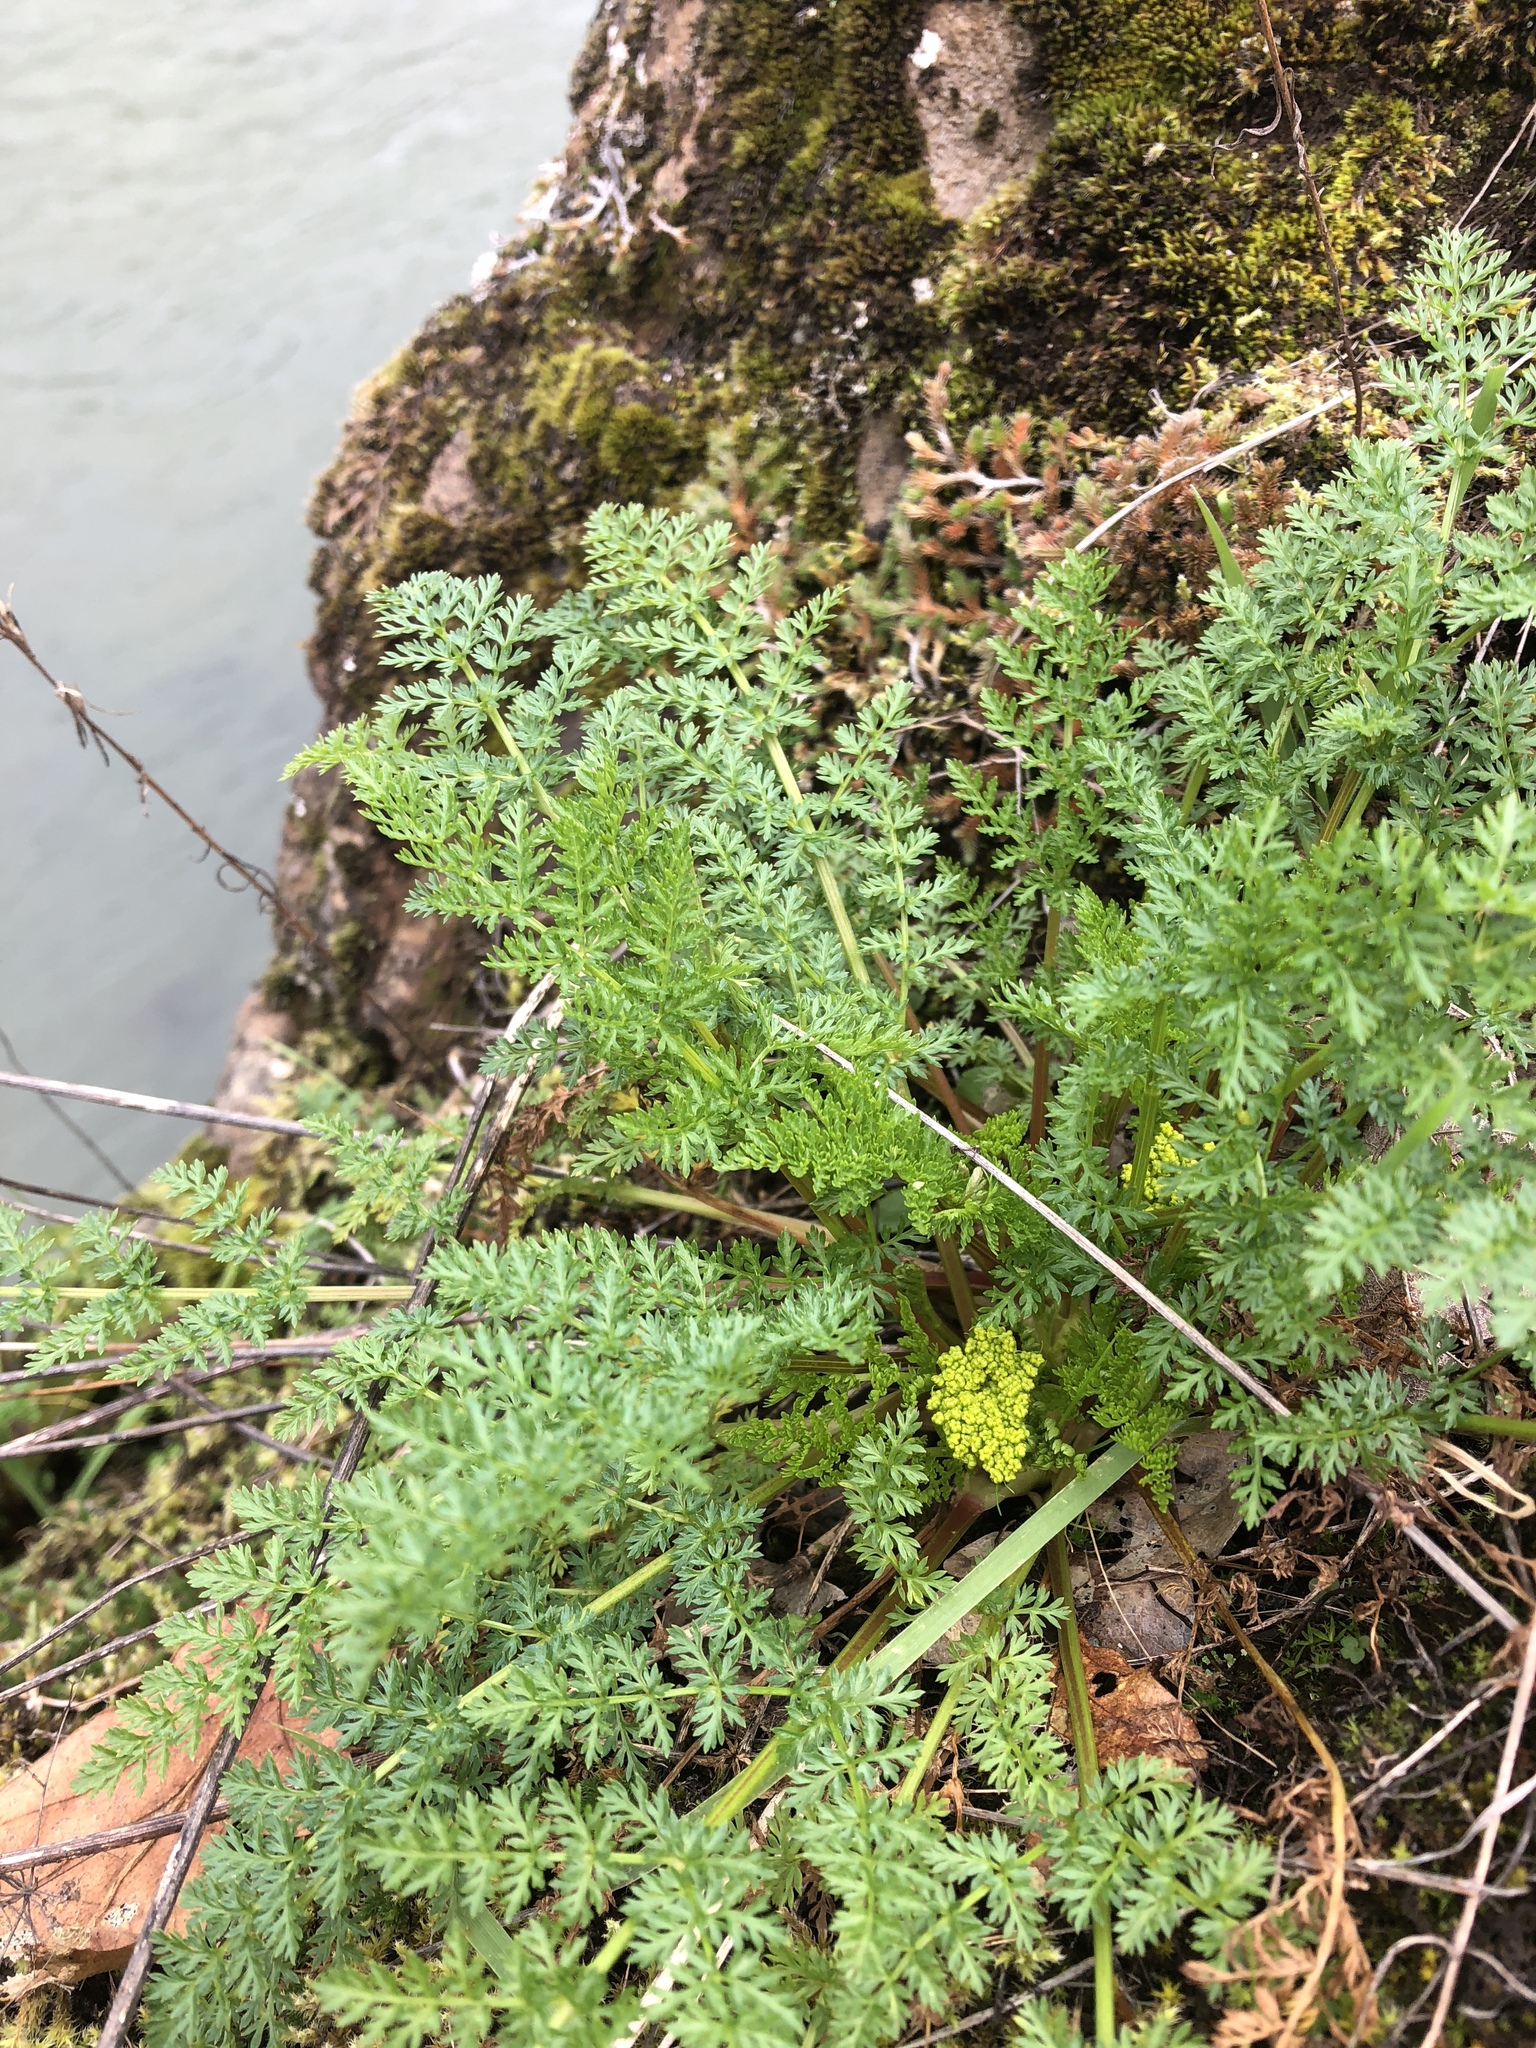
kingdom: Plantae
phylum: Tracheophyta
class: Magnoliopsida
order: Apiales
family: Apiaceae
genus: Lomatium
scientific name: Lomatium hallii
